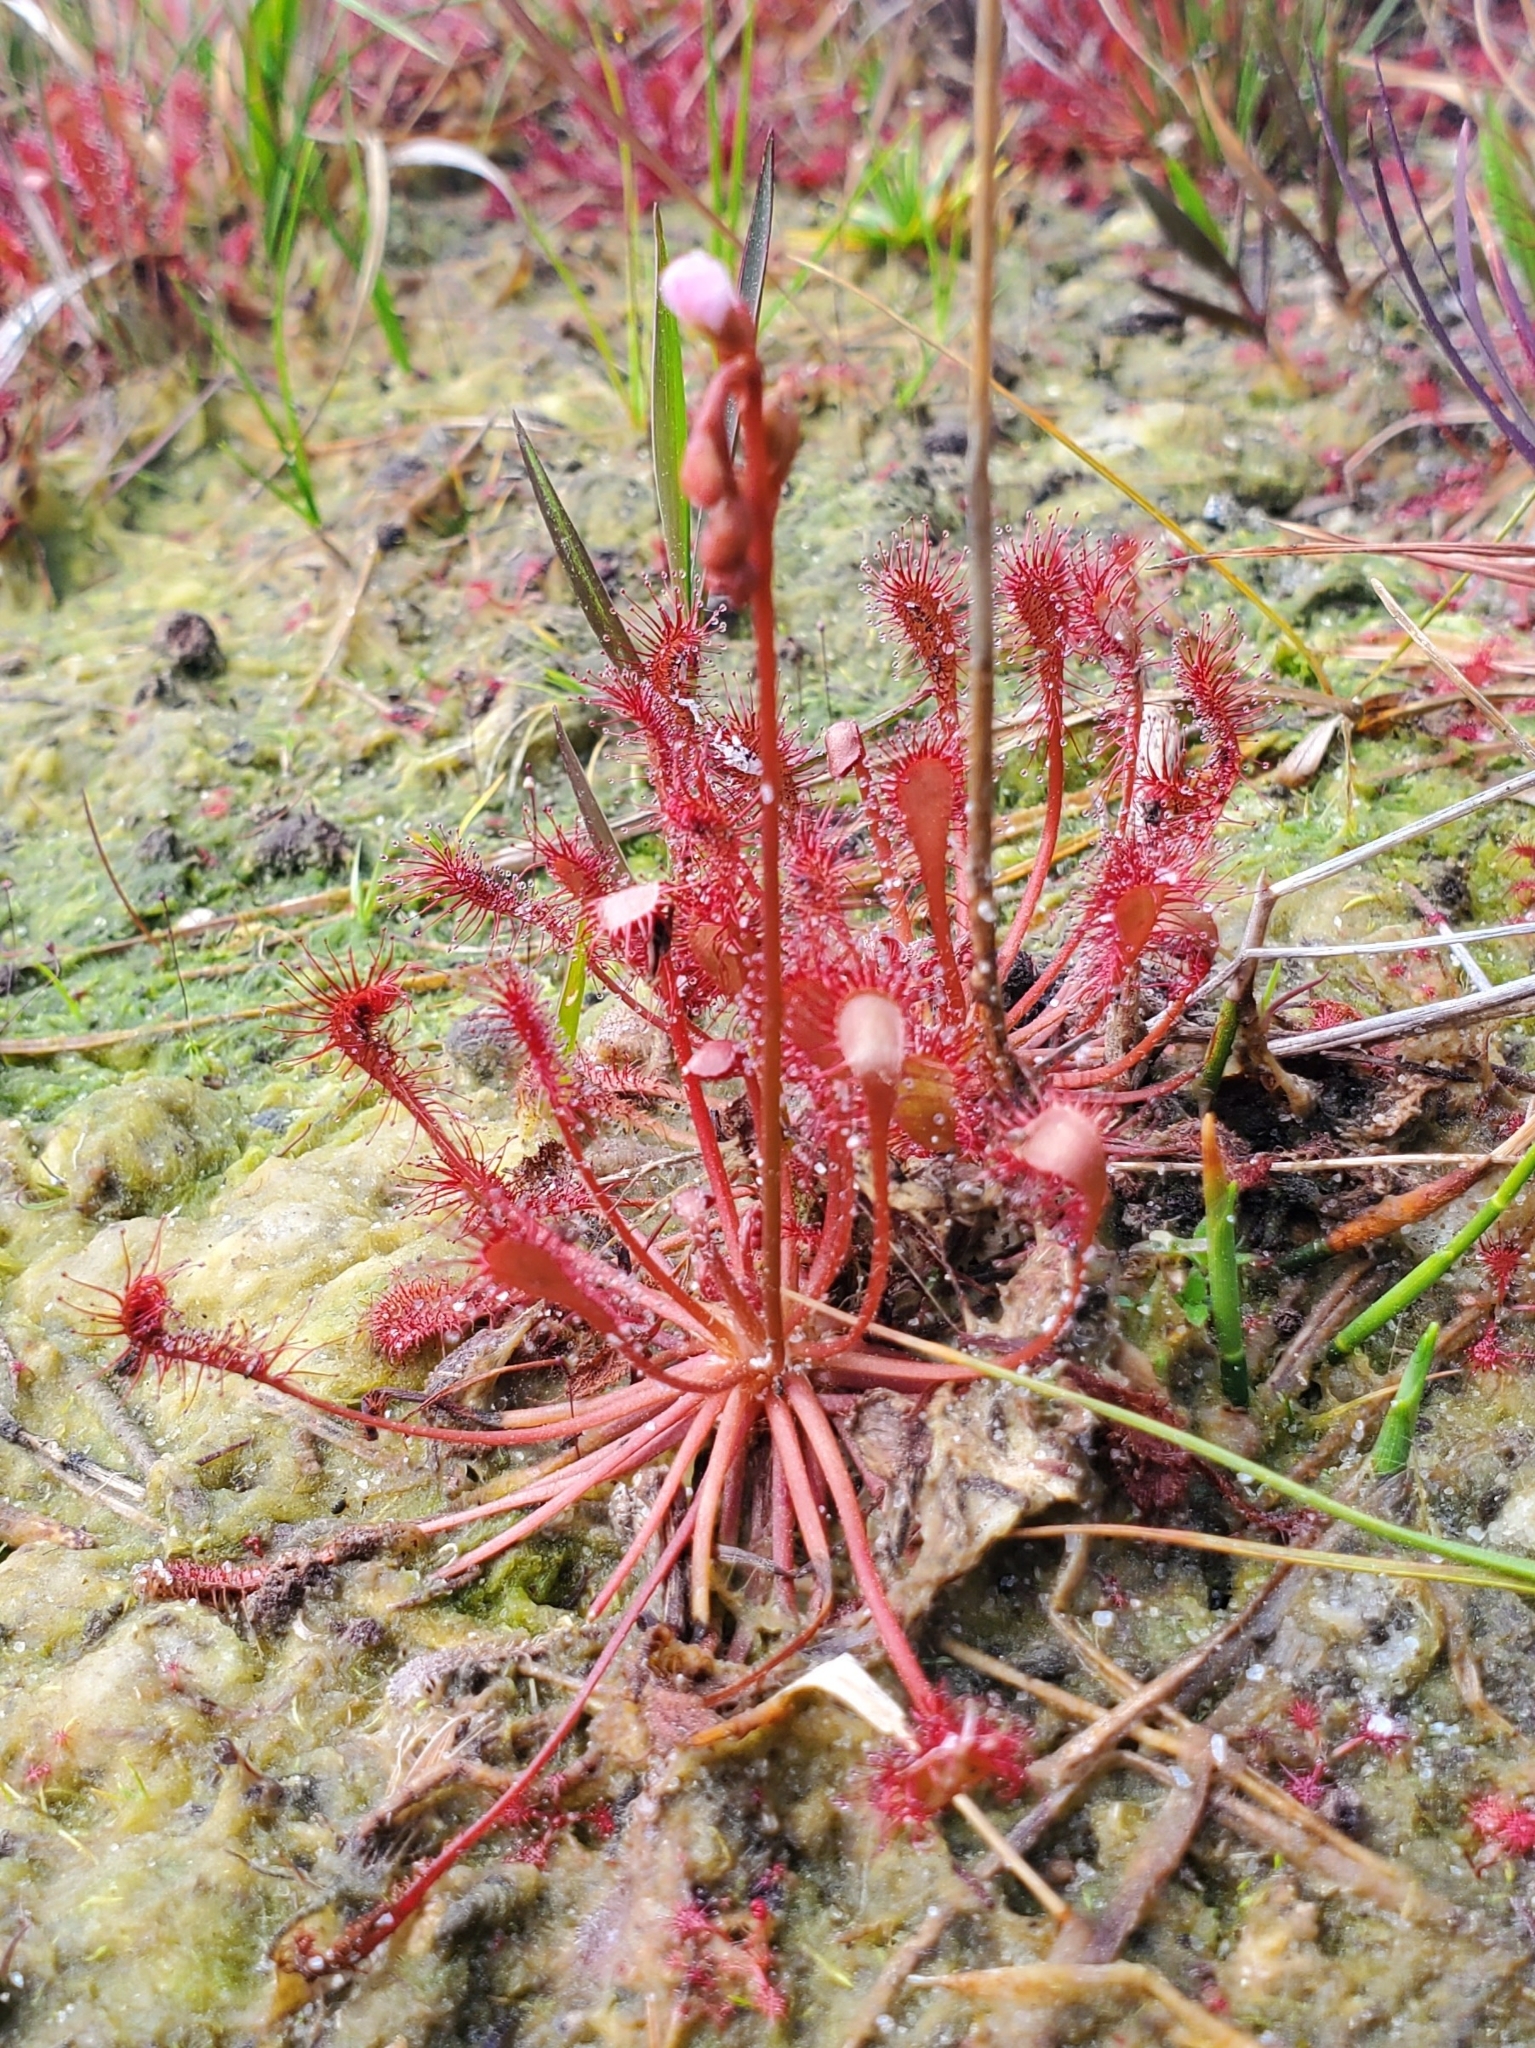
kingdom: Plantae
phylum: Tracheophyta
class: Magnoliopsida
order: Caryophyllales
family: Droseraceae
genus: Drosera
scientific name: Drosera capillaris
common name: Pink sundew
